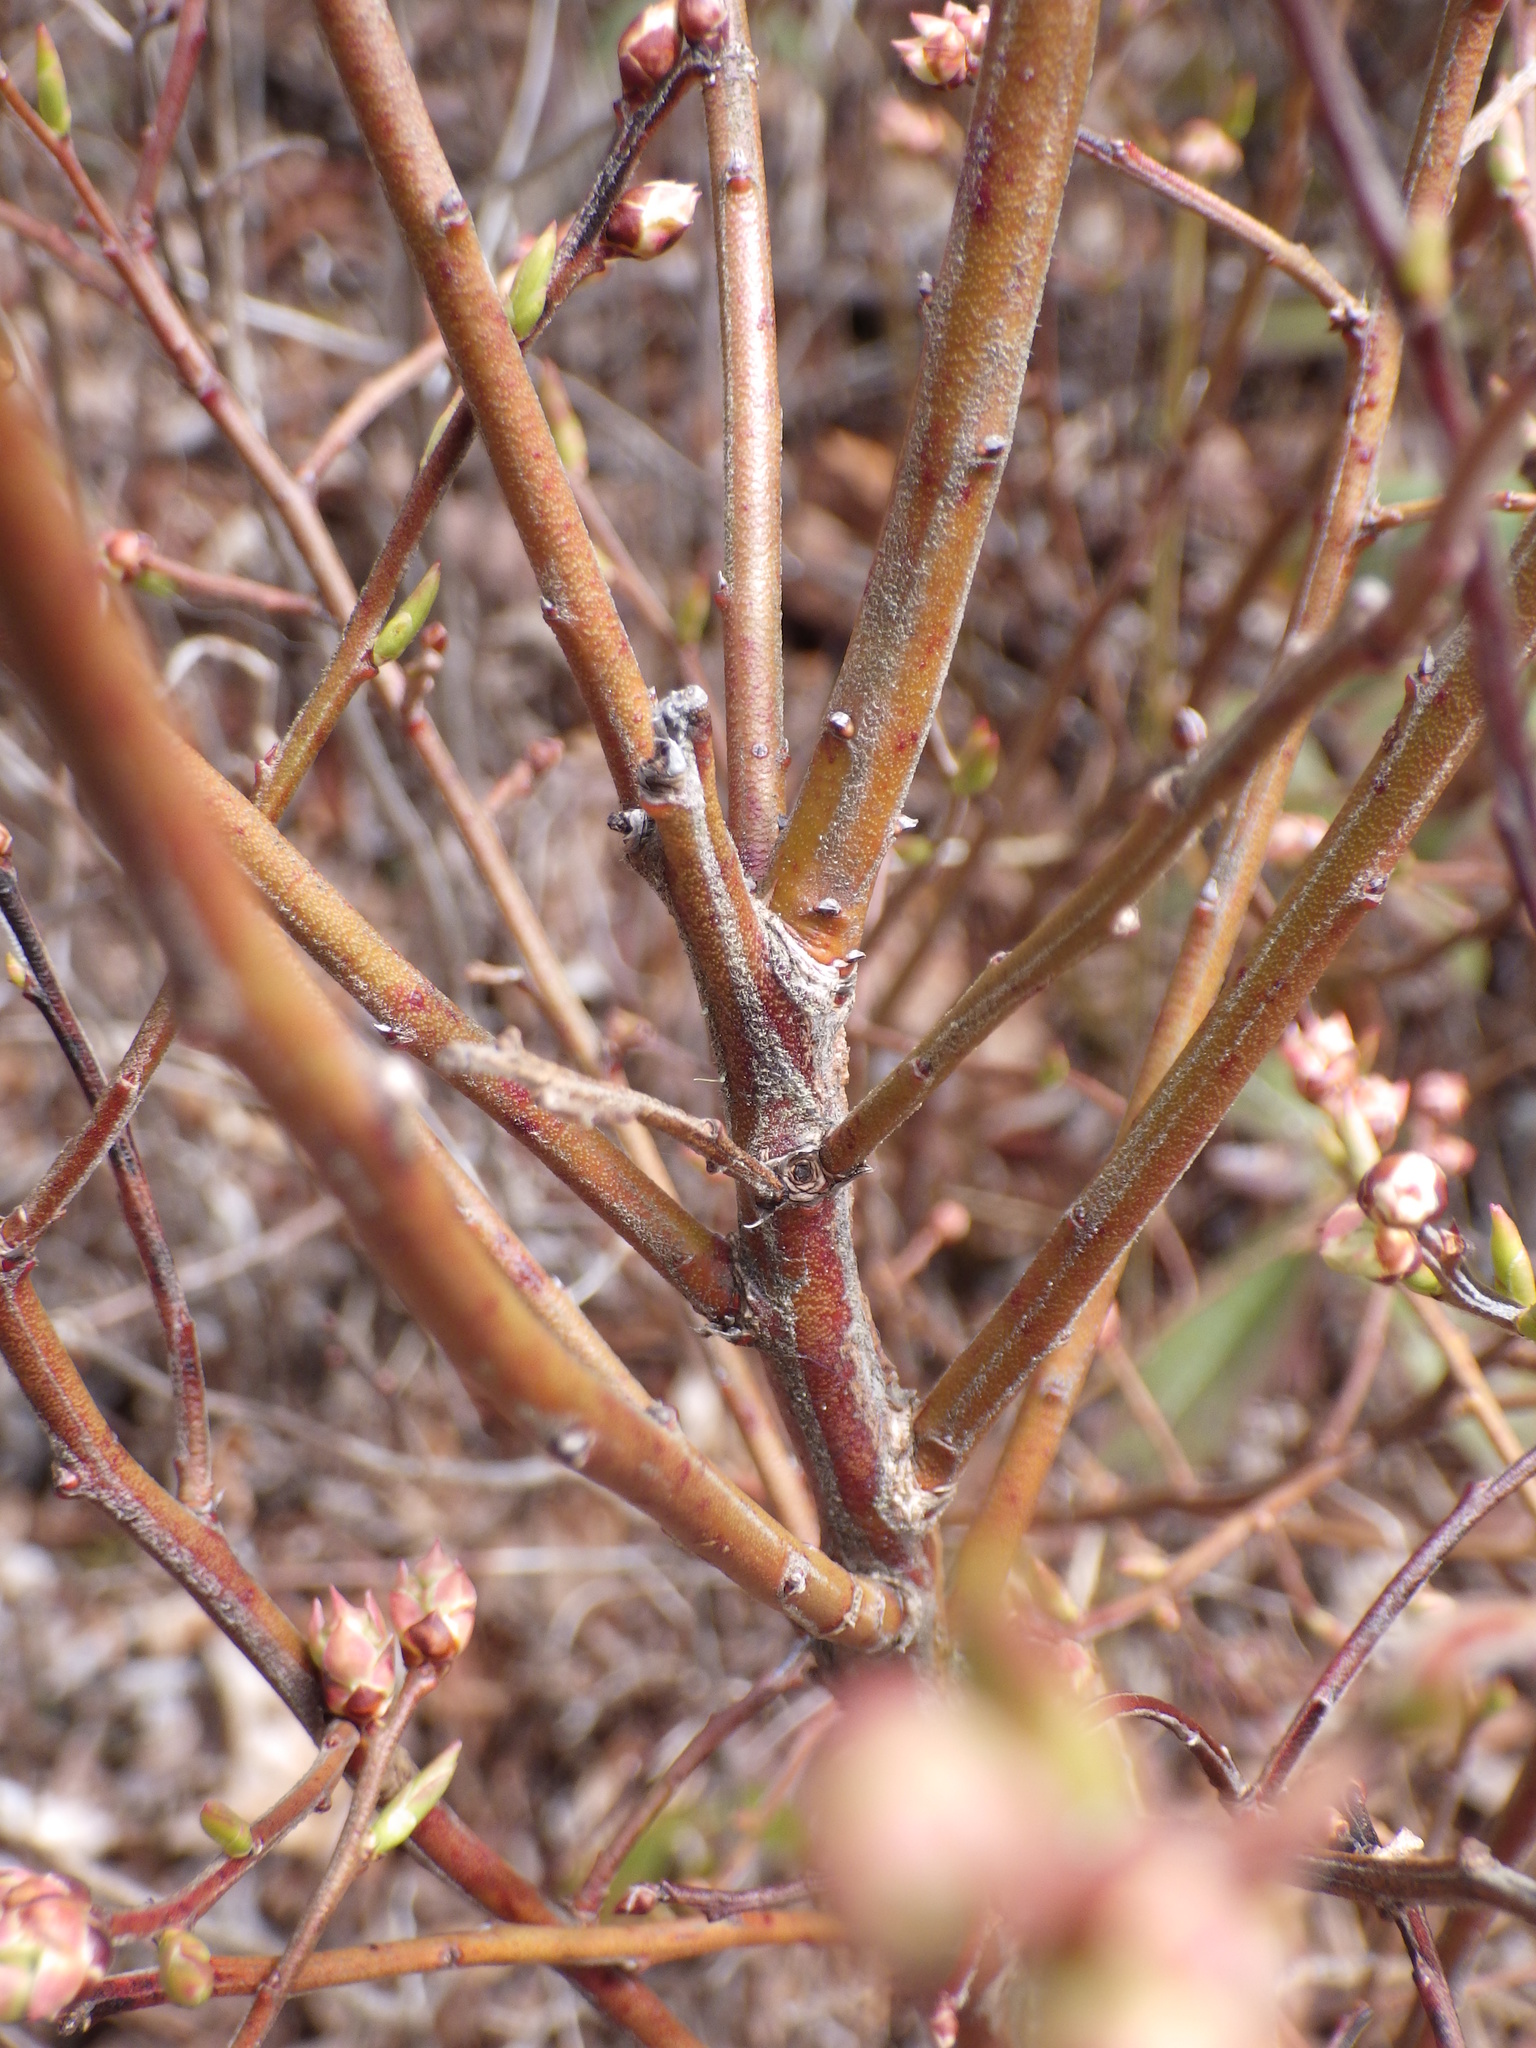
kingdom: Plantae
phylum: Tracheophyta
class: Magnoliopsida
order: Ericales
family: Ericaceae
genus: Gaylussacia
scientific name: Gaylussacia baccata
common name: Black huckleberry
